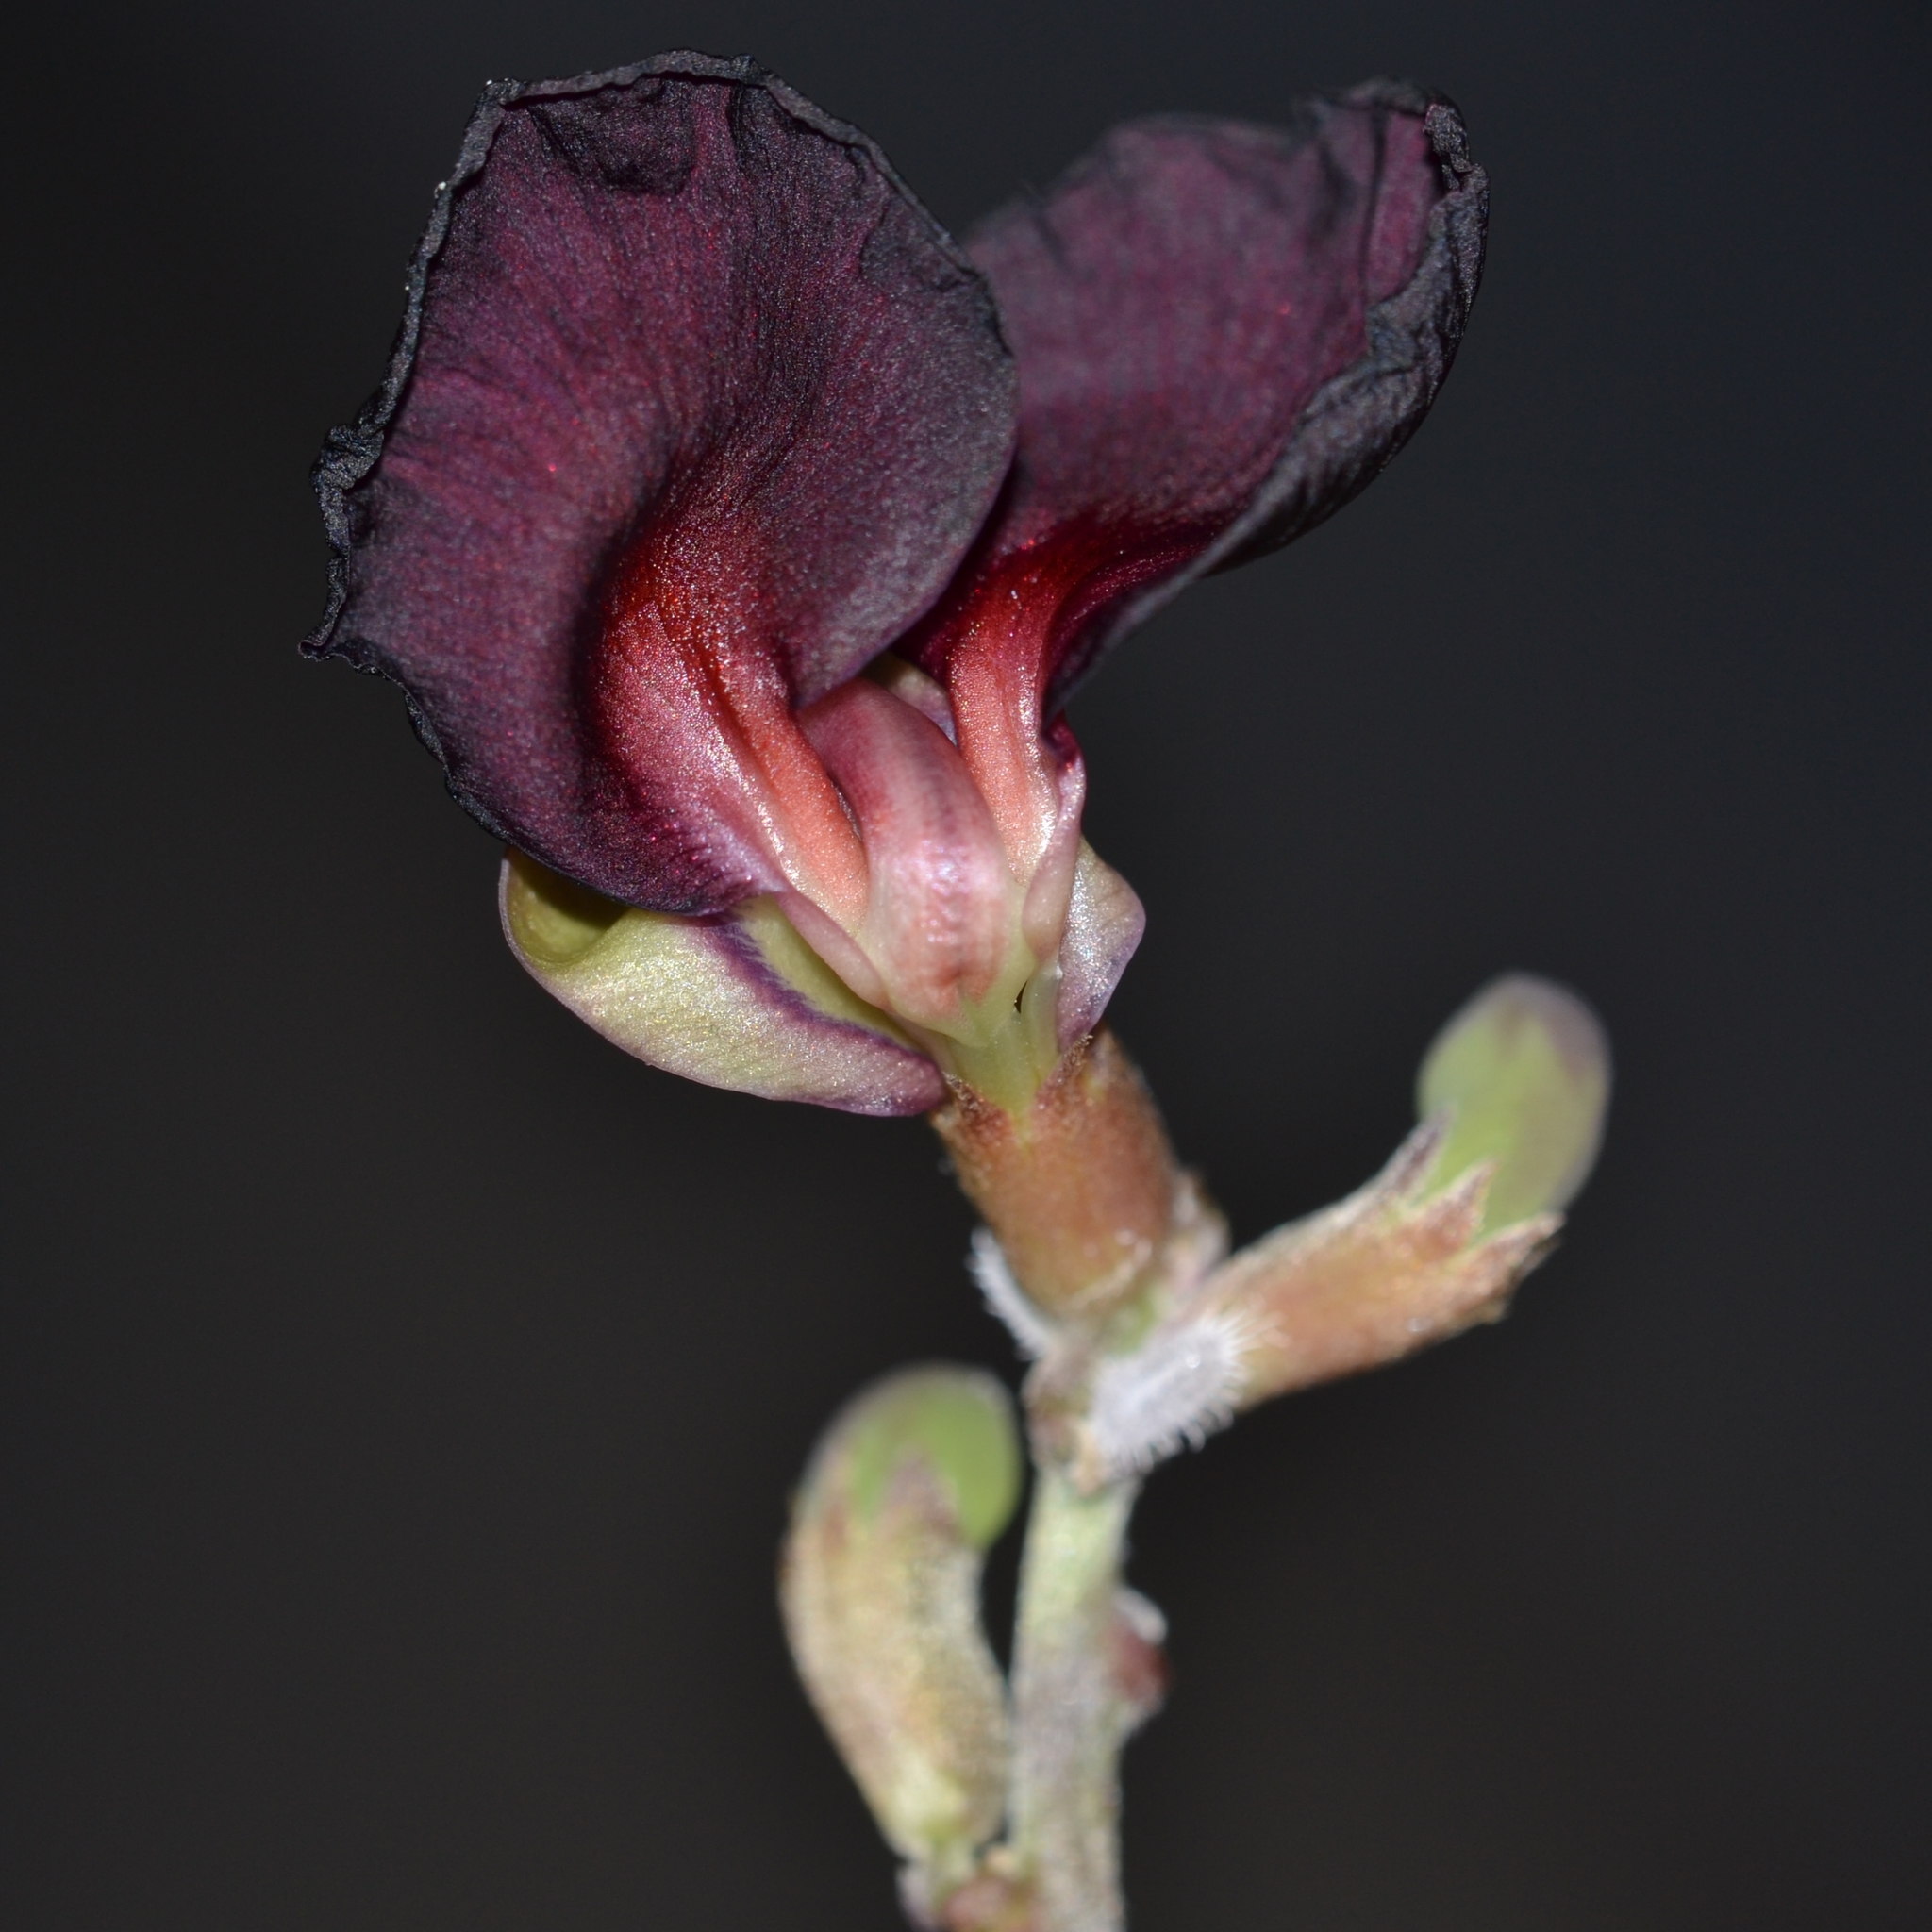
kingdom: Plantae
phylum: Tracheophyta
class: Magnoliopsida
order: Fabales
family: Fabaceae
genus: Macroptilium
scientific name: Macroptilium atropurpureum
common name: Purple bushbean
